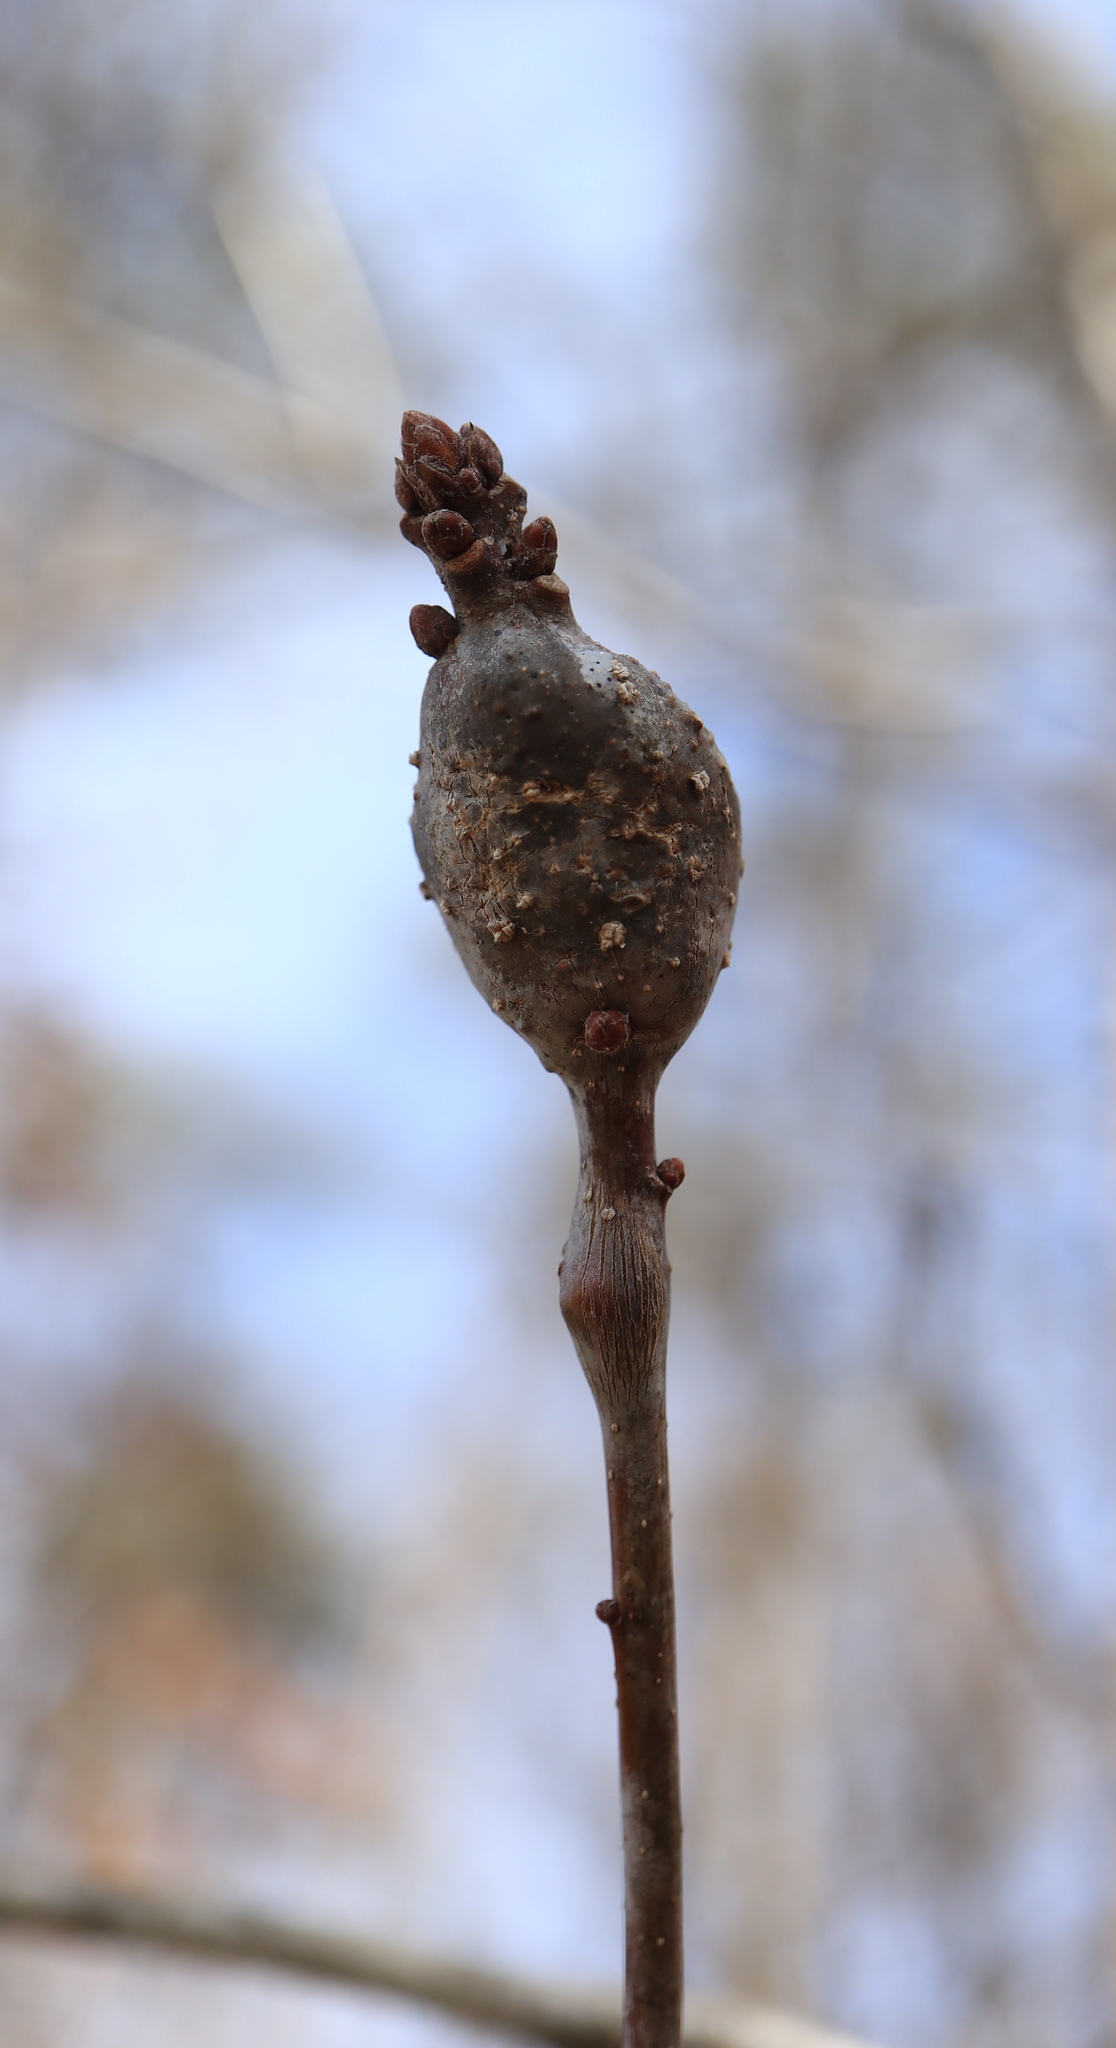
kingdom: Animalia
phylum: Arthropoda
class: Insecta
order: Hymenoptera
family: Cynipidae
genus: Neuroterus
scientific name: Neuroterus quercusbaccarum
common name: Common spangle gall
